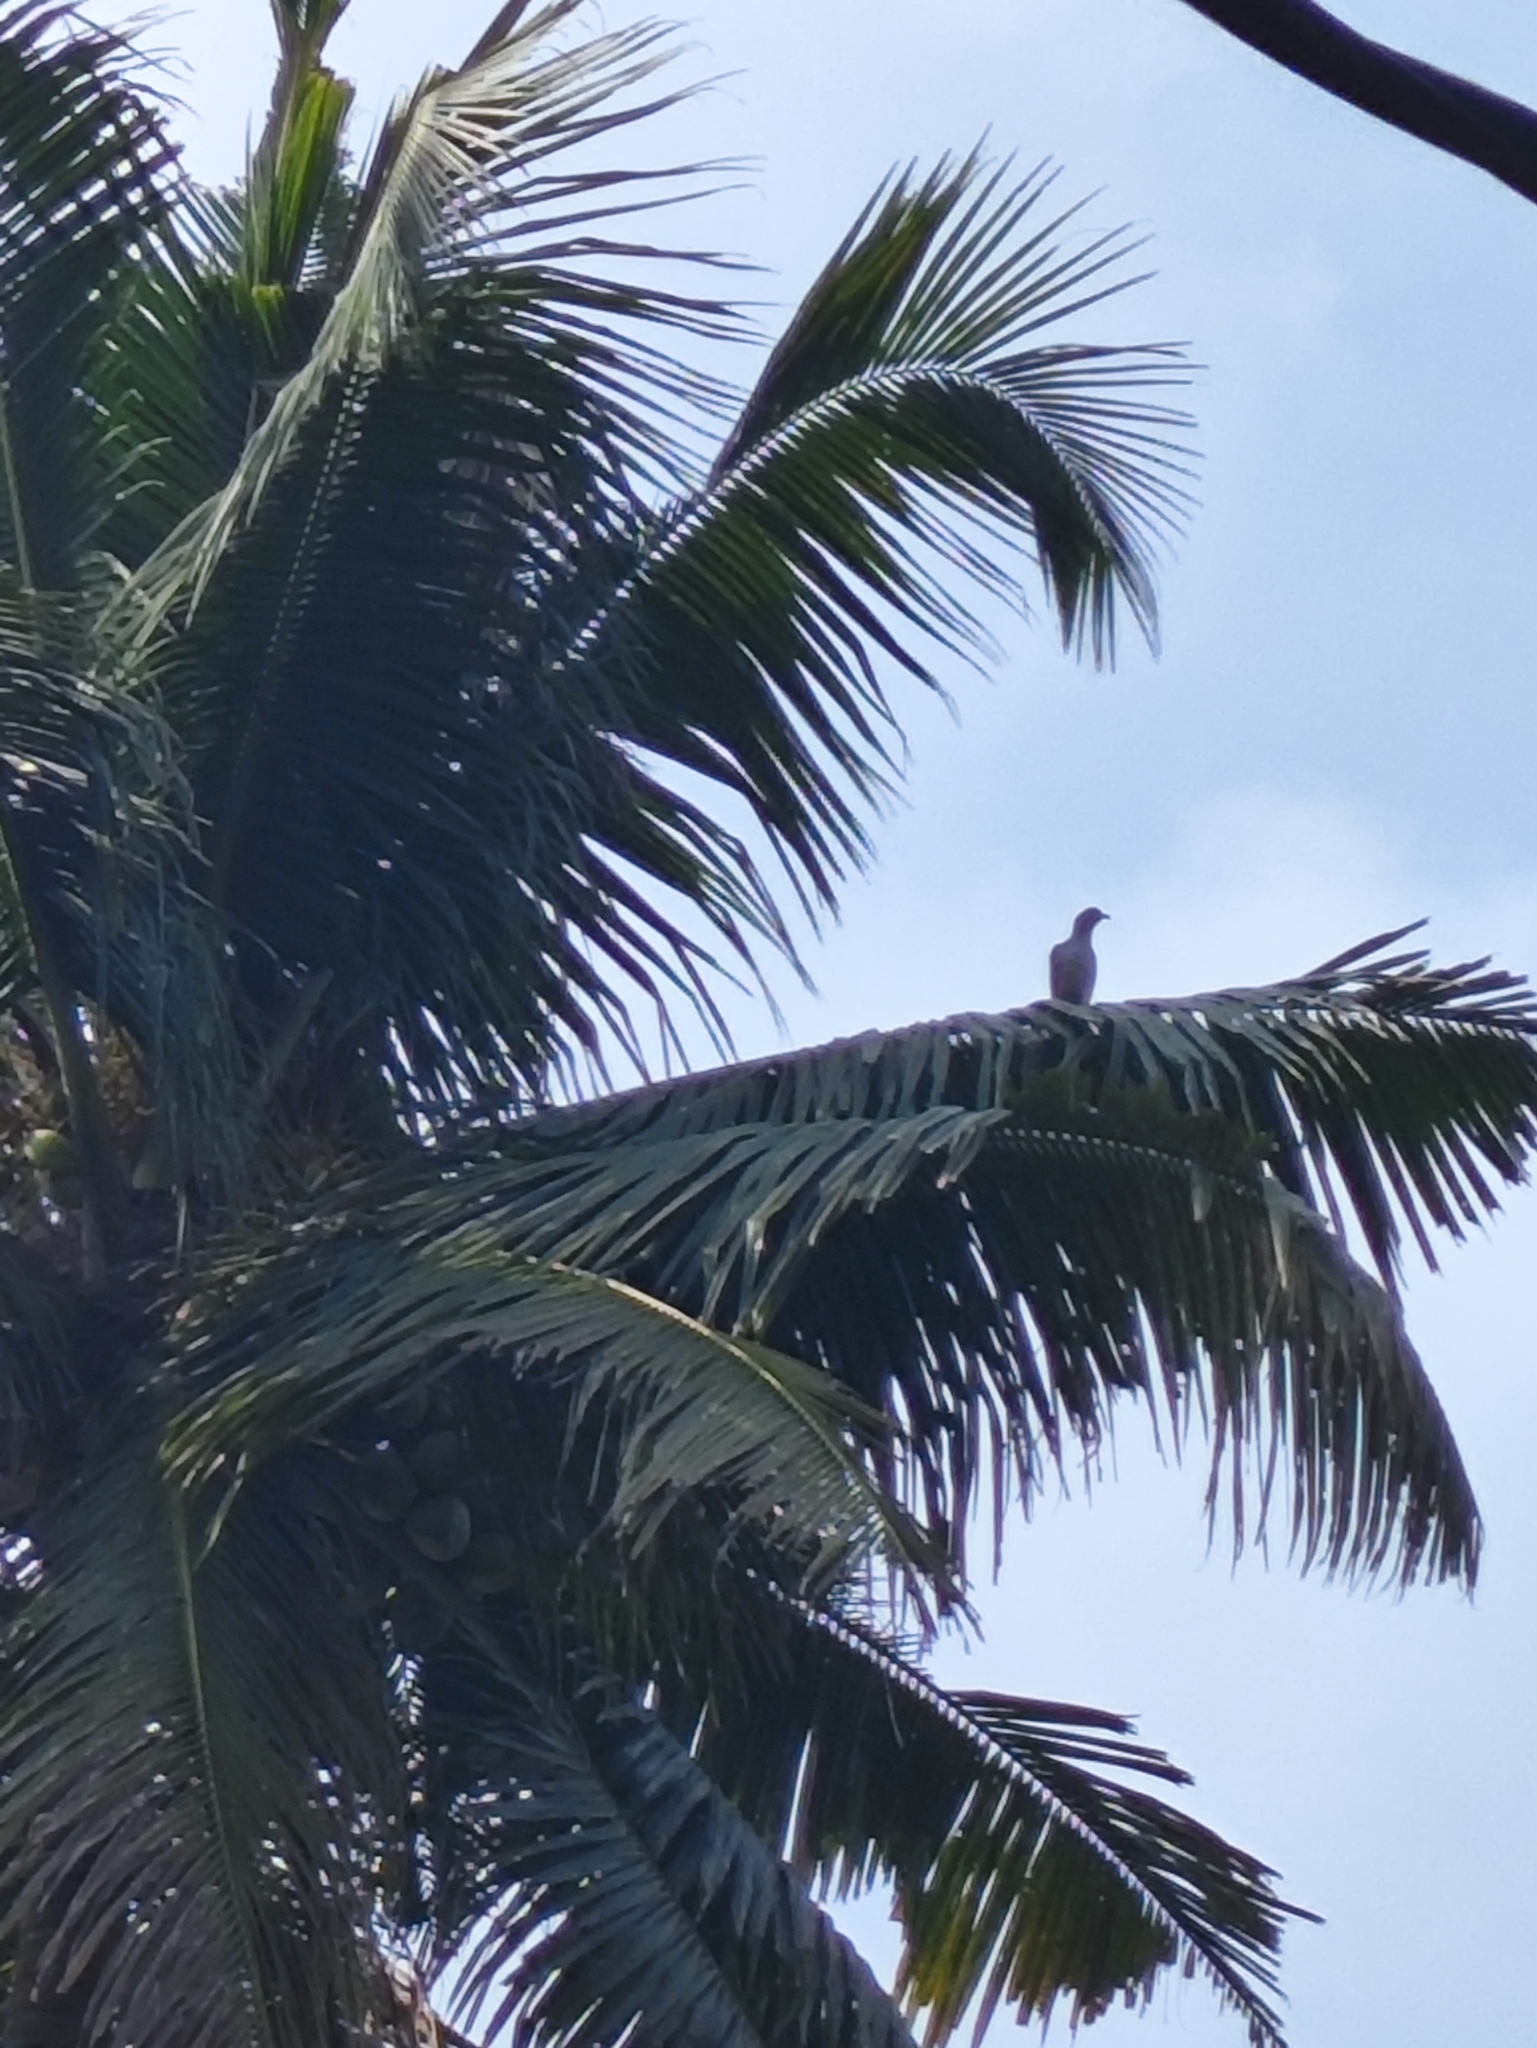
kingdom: Animalia
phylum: Chordata
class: Aves
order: Columbiformes
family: Columbidae
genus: Ducula
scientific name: Ducula aenea
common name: Green imperial pigeon
